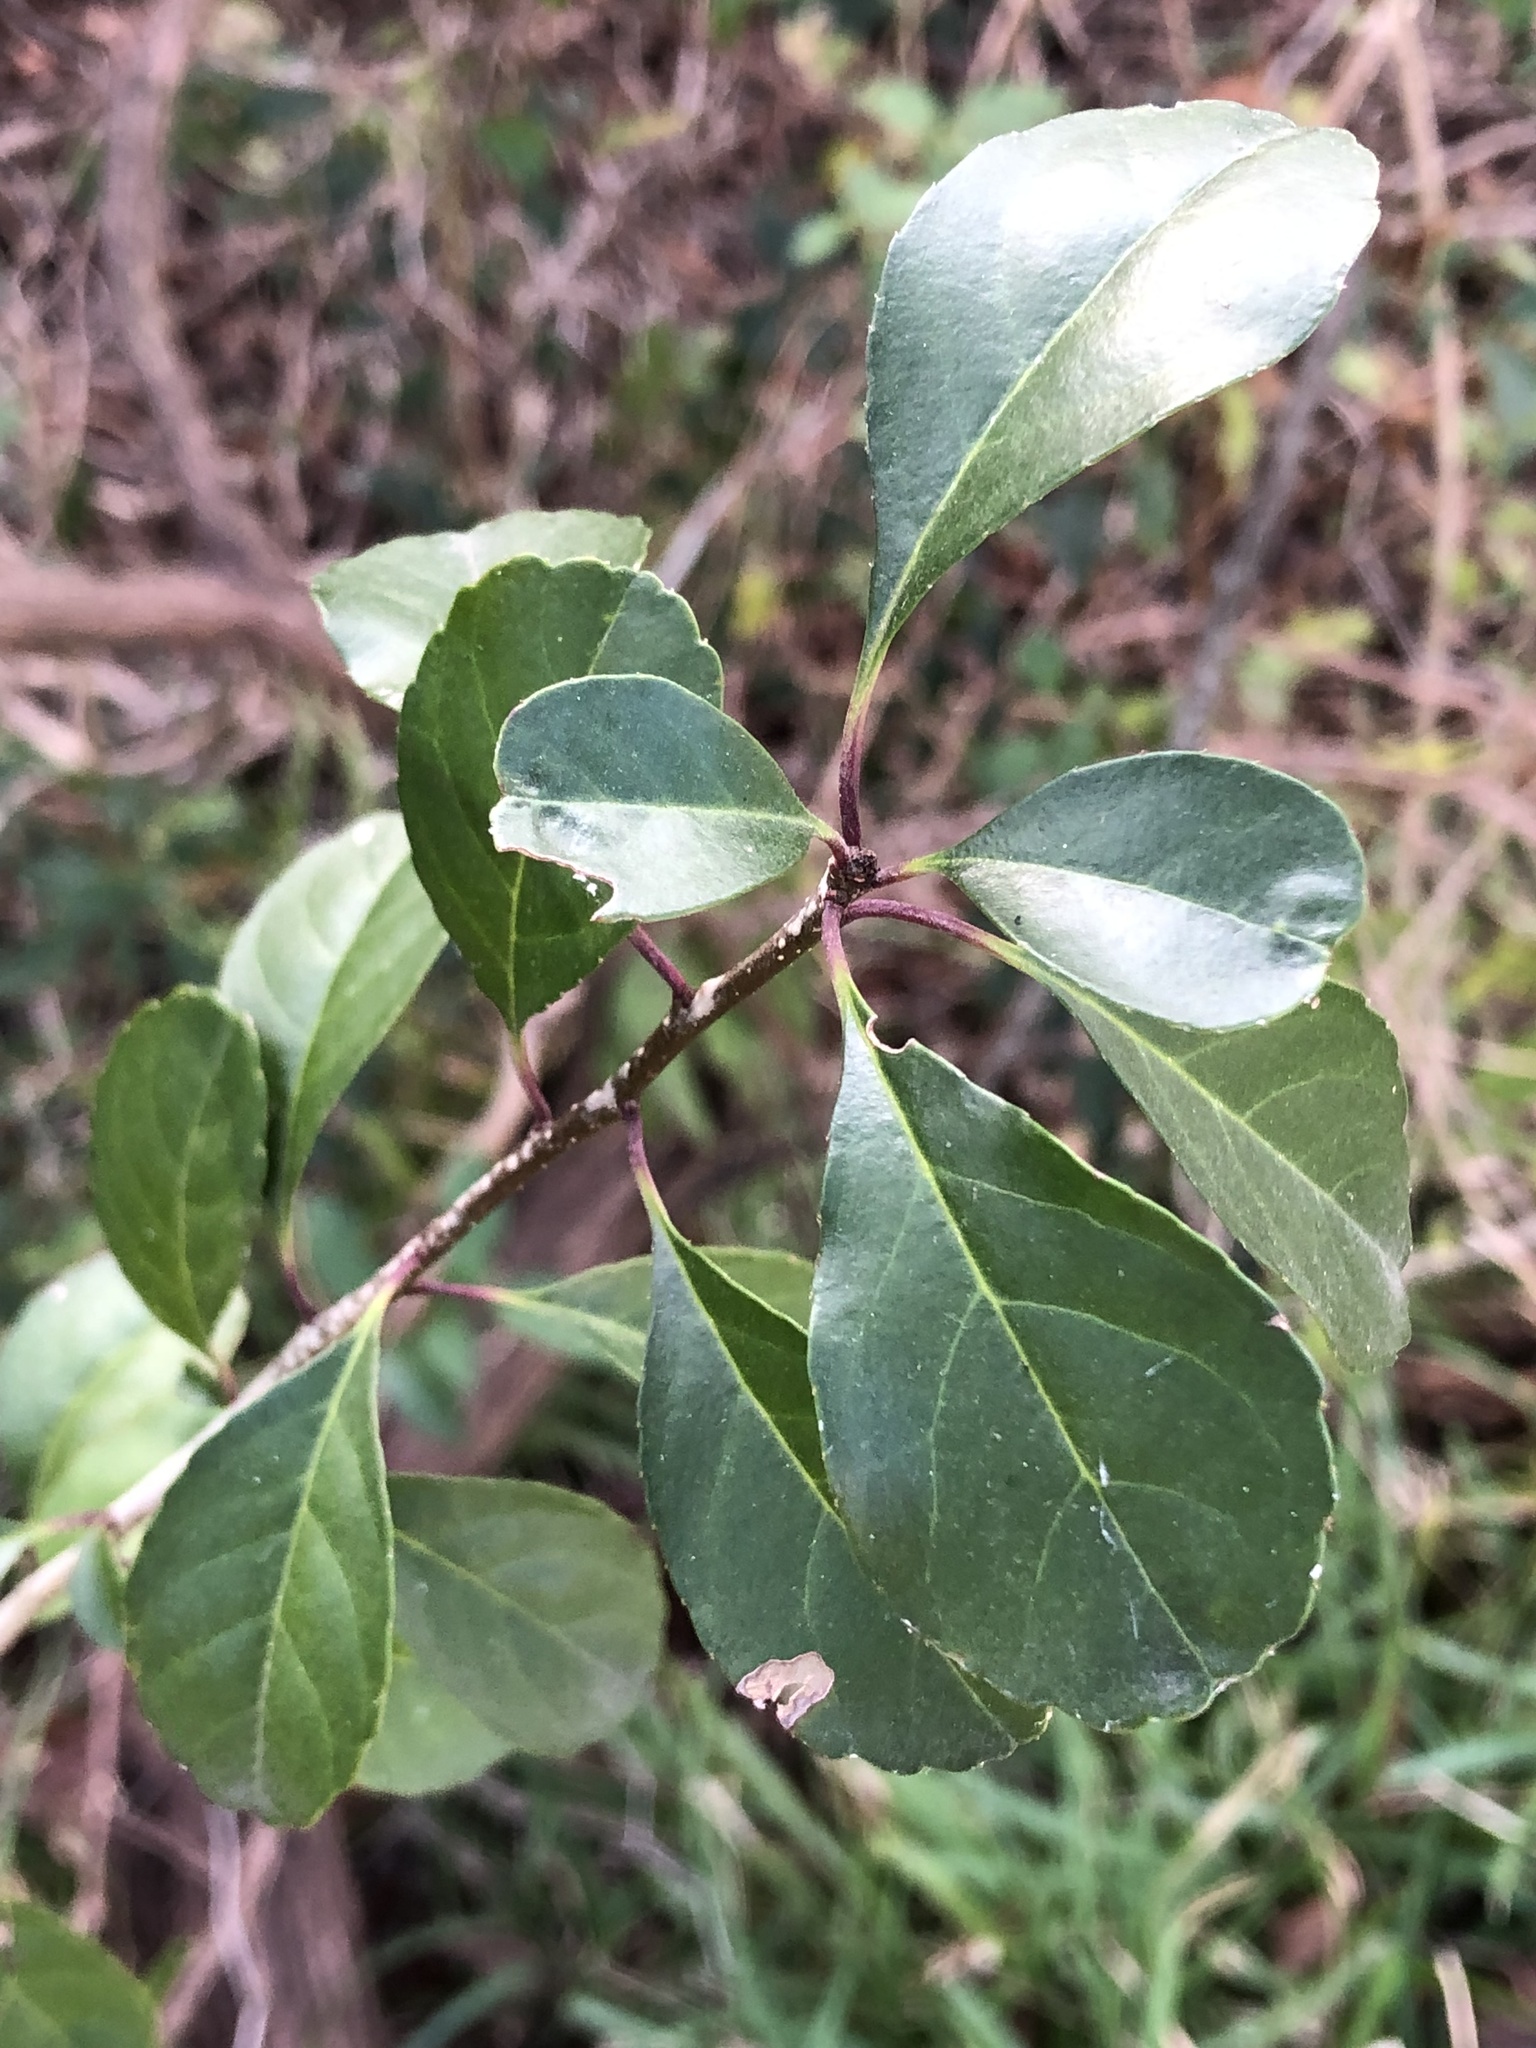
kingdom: Plantae
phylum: Tracheophyta
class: Magnoliopsida
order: Aquifoliales
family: Aquifoliaceae
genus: Ilex
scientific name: Ilex decidua
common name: Possum-haw
